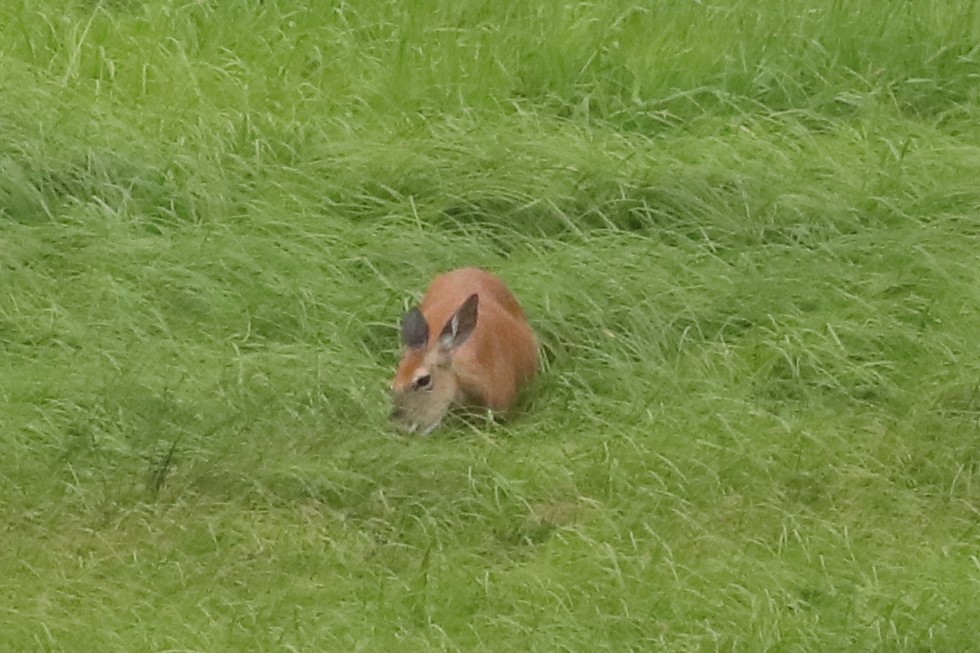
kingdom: Animalia
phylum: Chordata
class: Mammalia
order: Artiodactyla
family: Cervidae
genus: Odocoileus
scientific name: Odocoileus virginianus
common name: White-tailed deer
